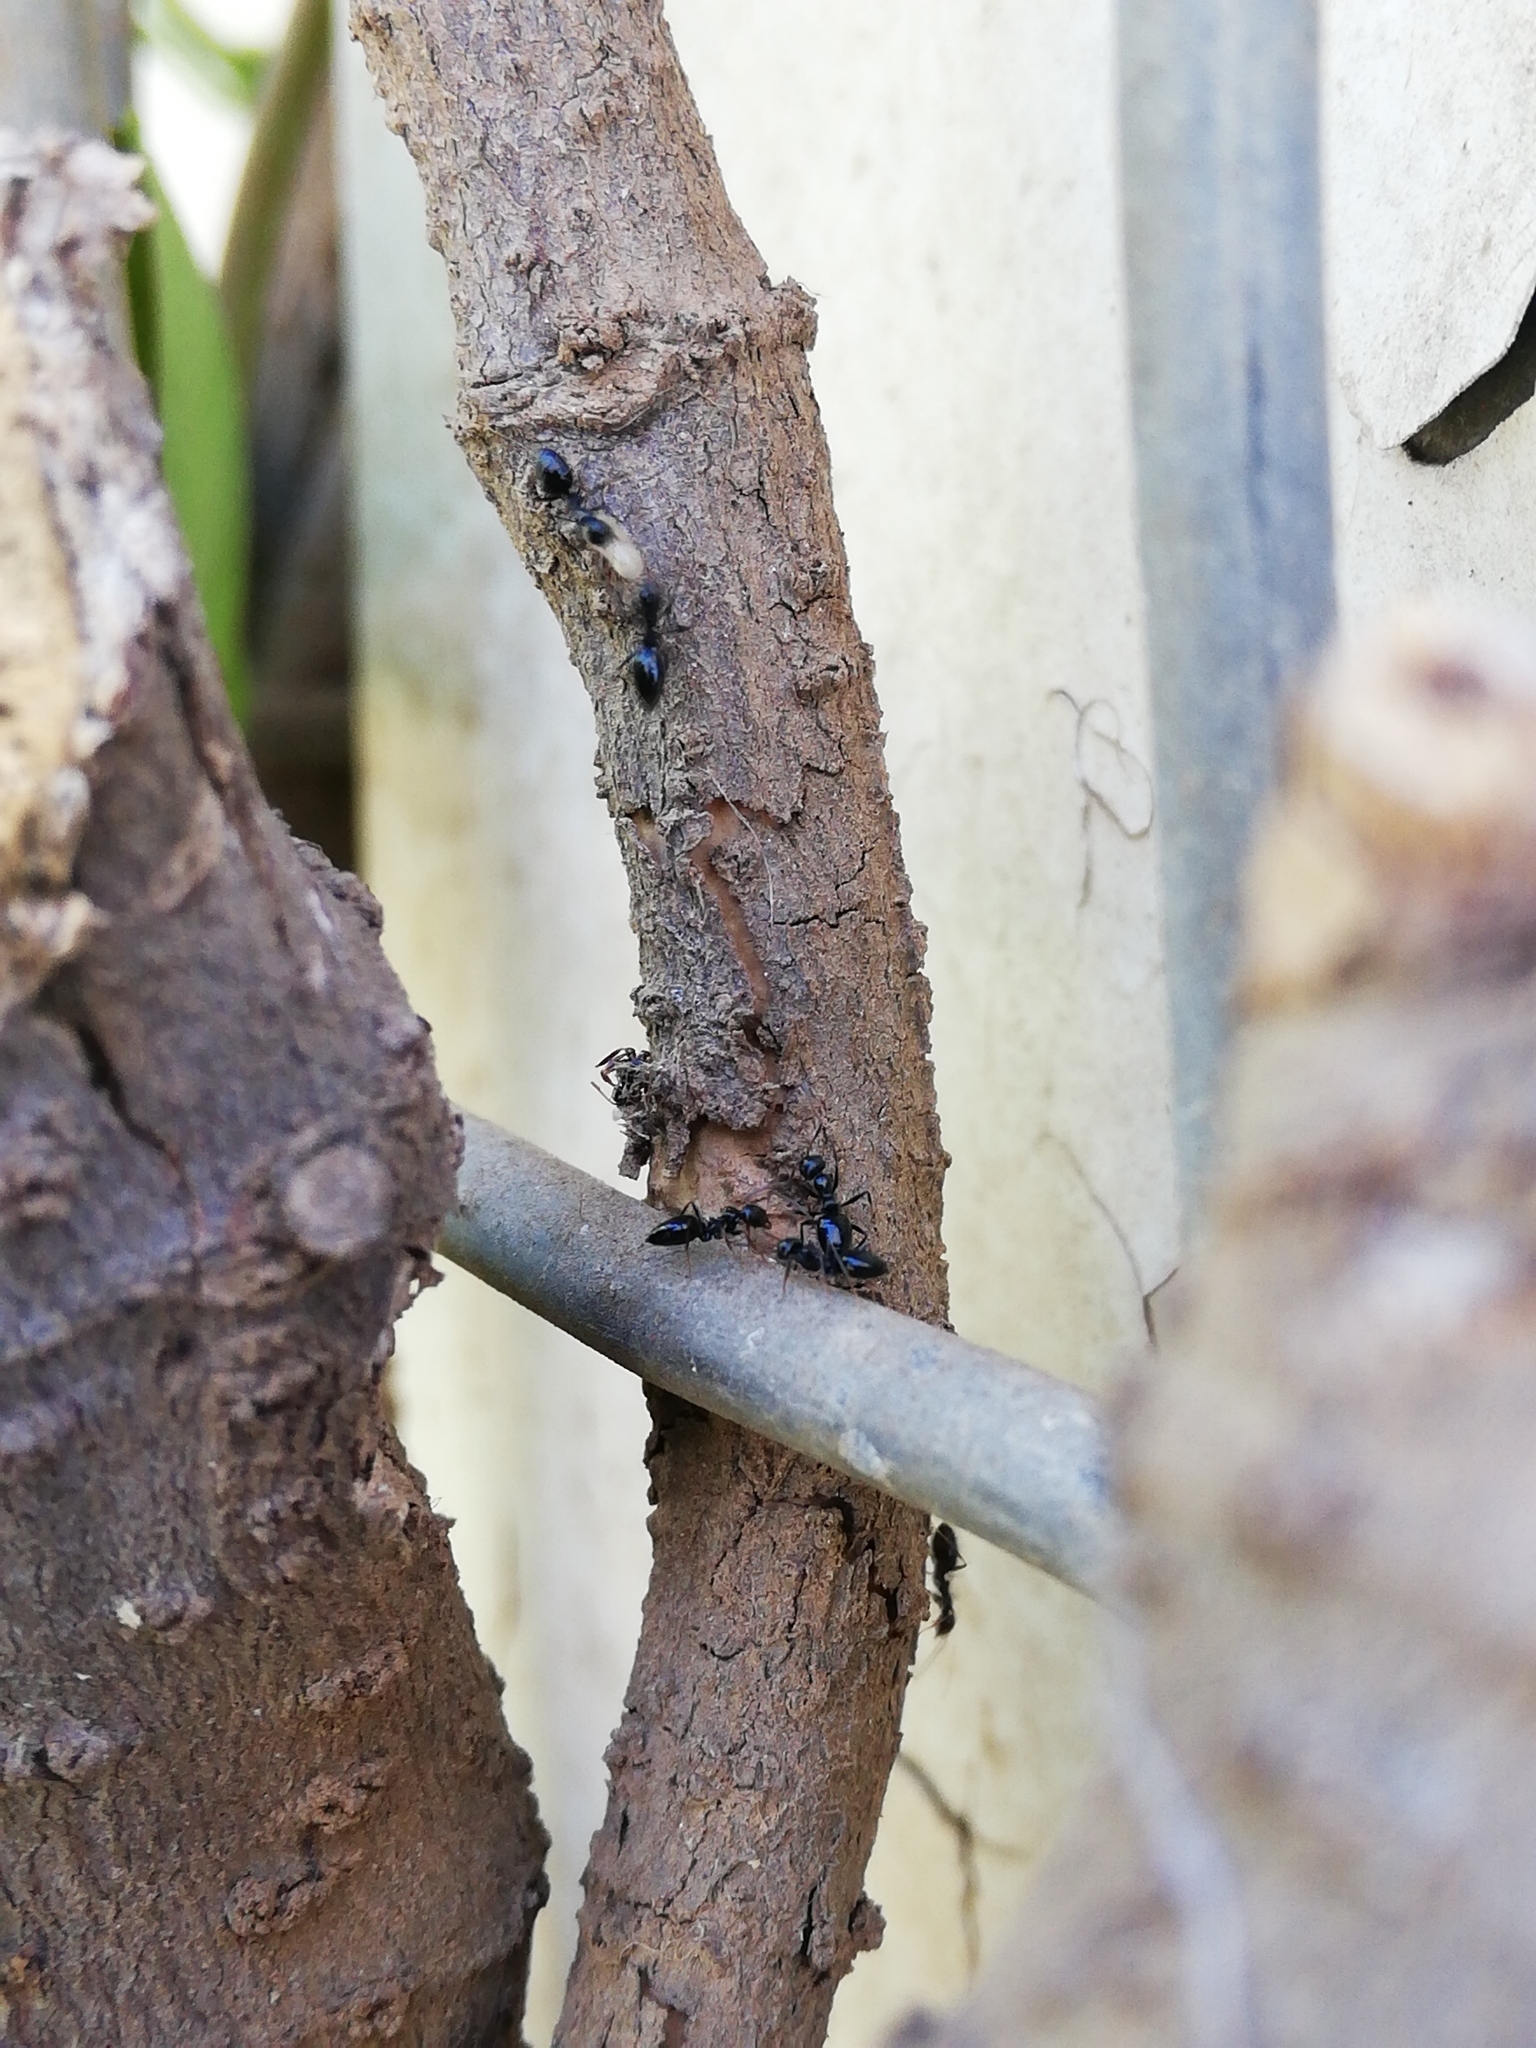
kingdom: Animalia
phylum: Arthropoda
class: Insecta
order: Hymenoptera
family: Formicidae
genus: Lepisiota
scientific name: Lepisiota capensis
